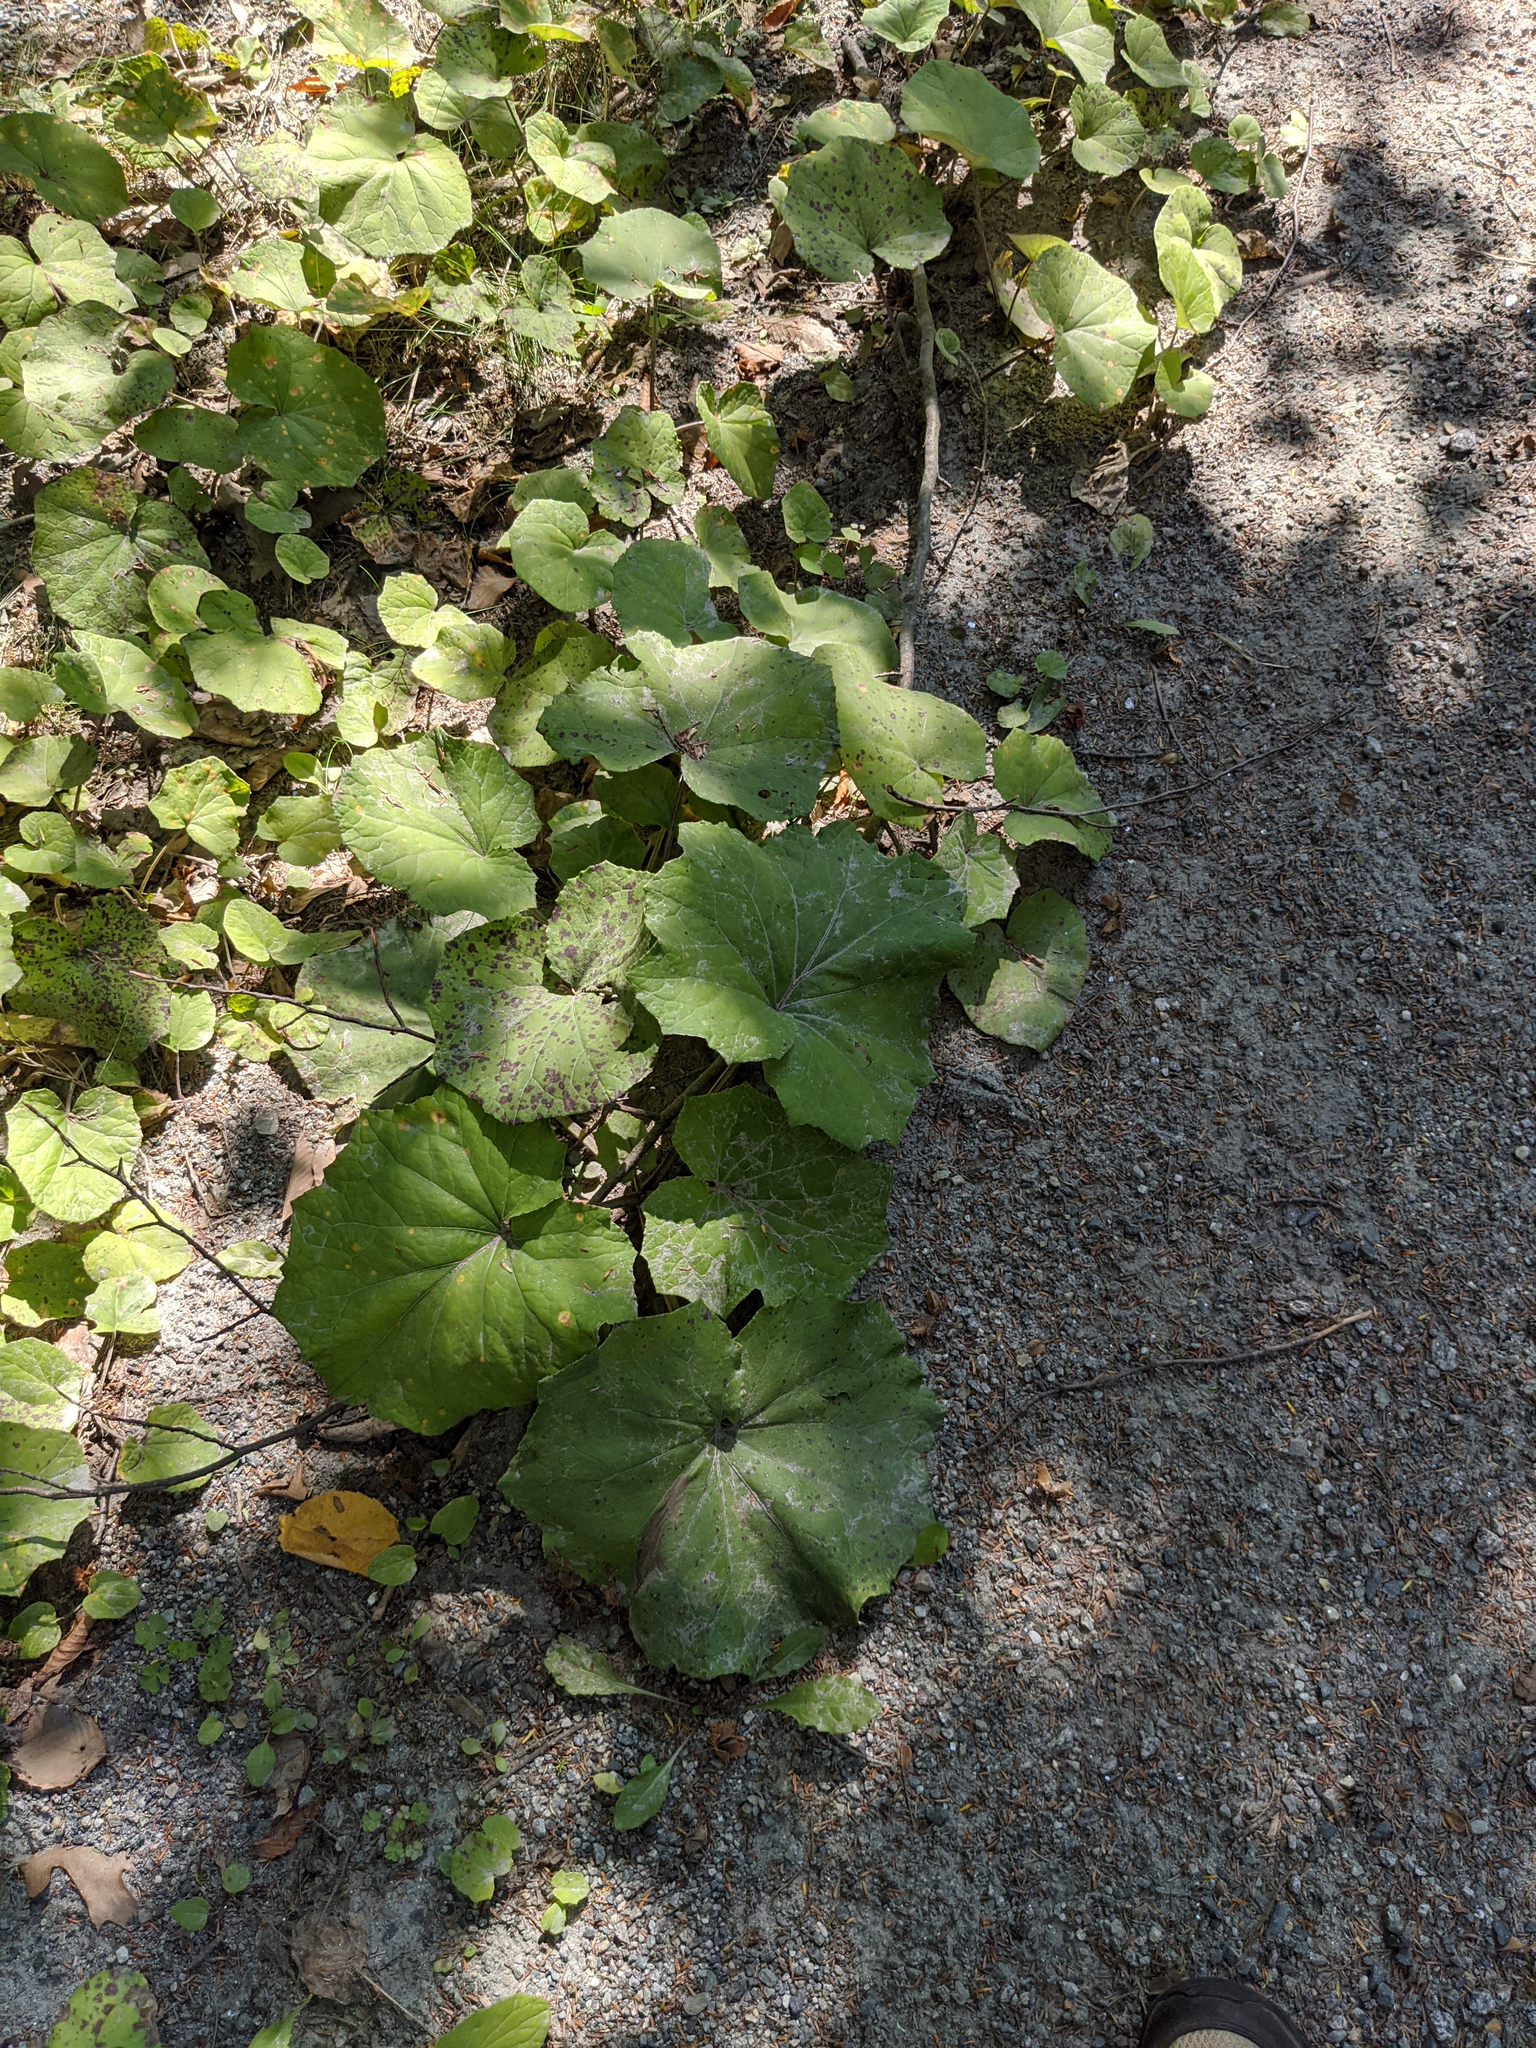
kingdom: Plantae
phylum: Tracheophyta
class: Magnoliopsida
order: Asterales
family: Asteraceae
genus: Tussilago
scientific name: Tussilago farfara
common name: Coltsfoot
